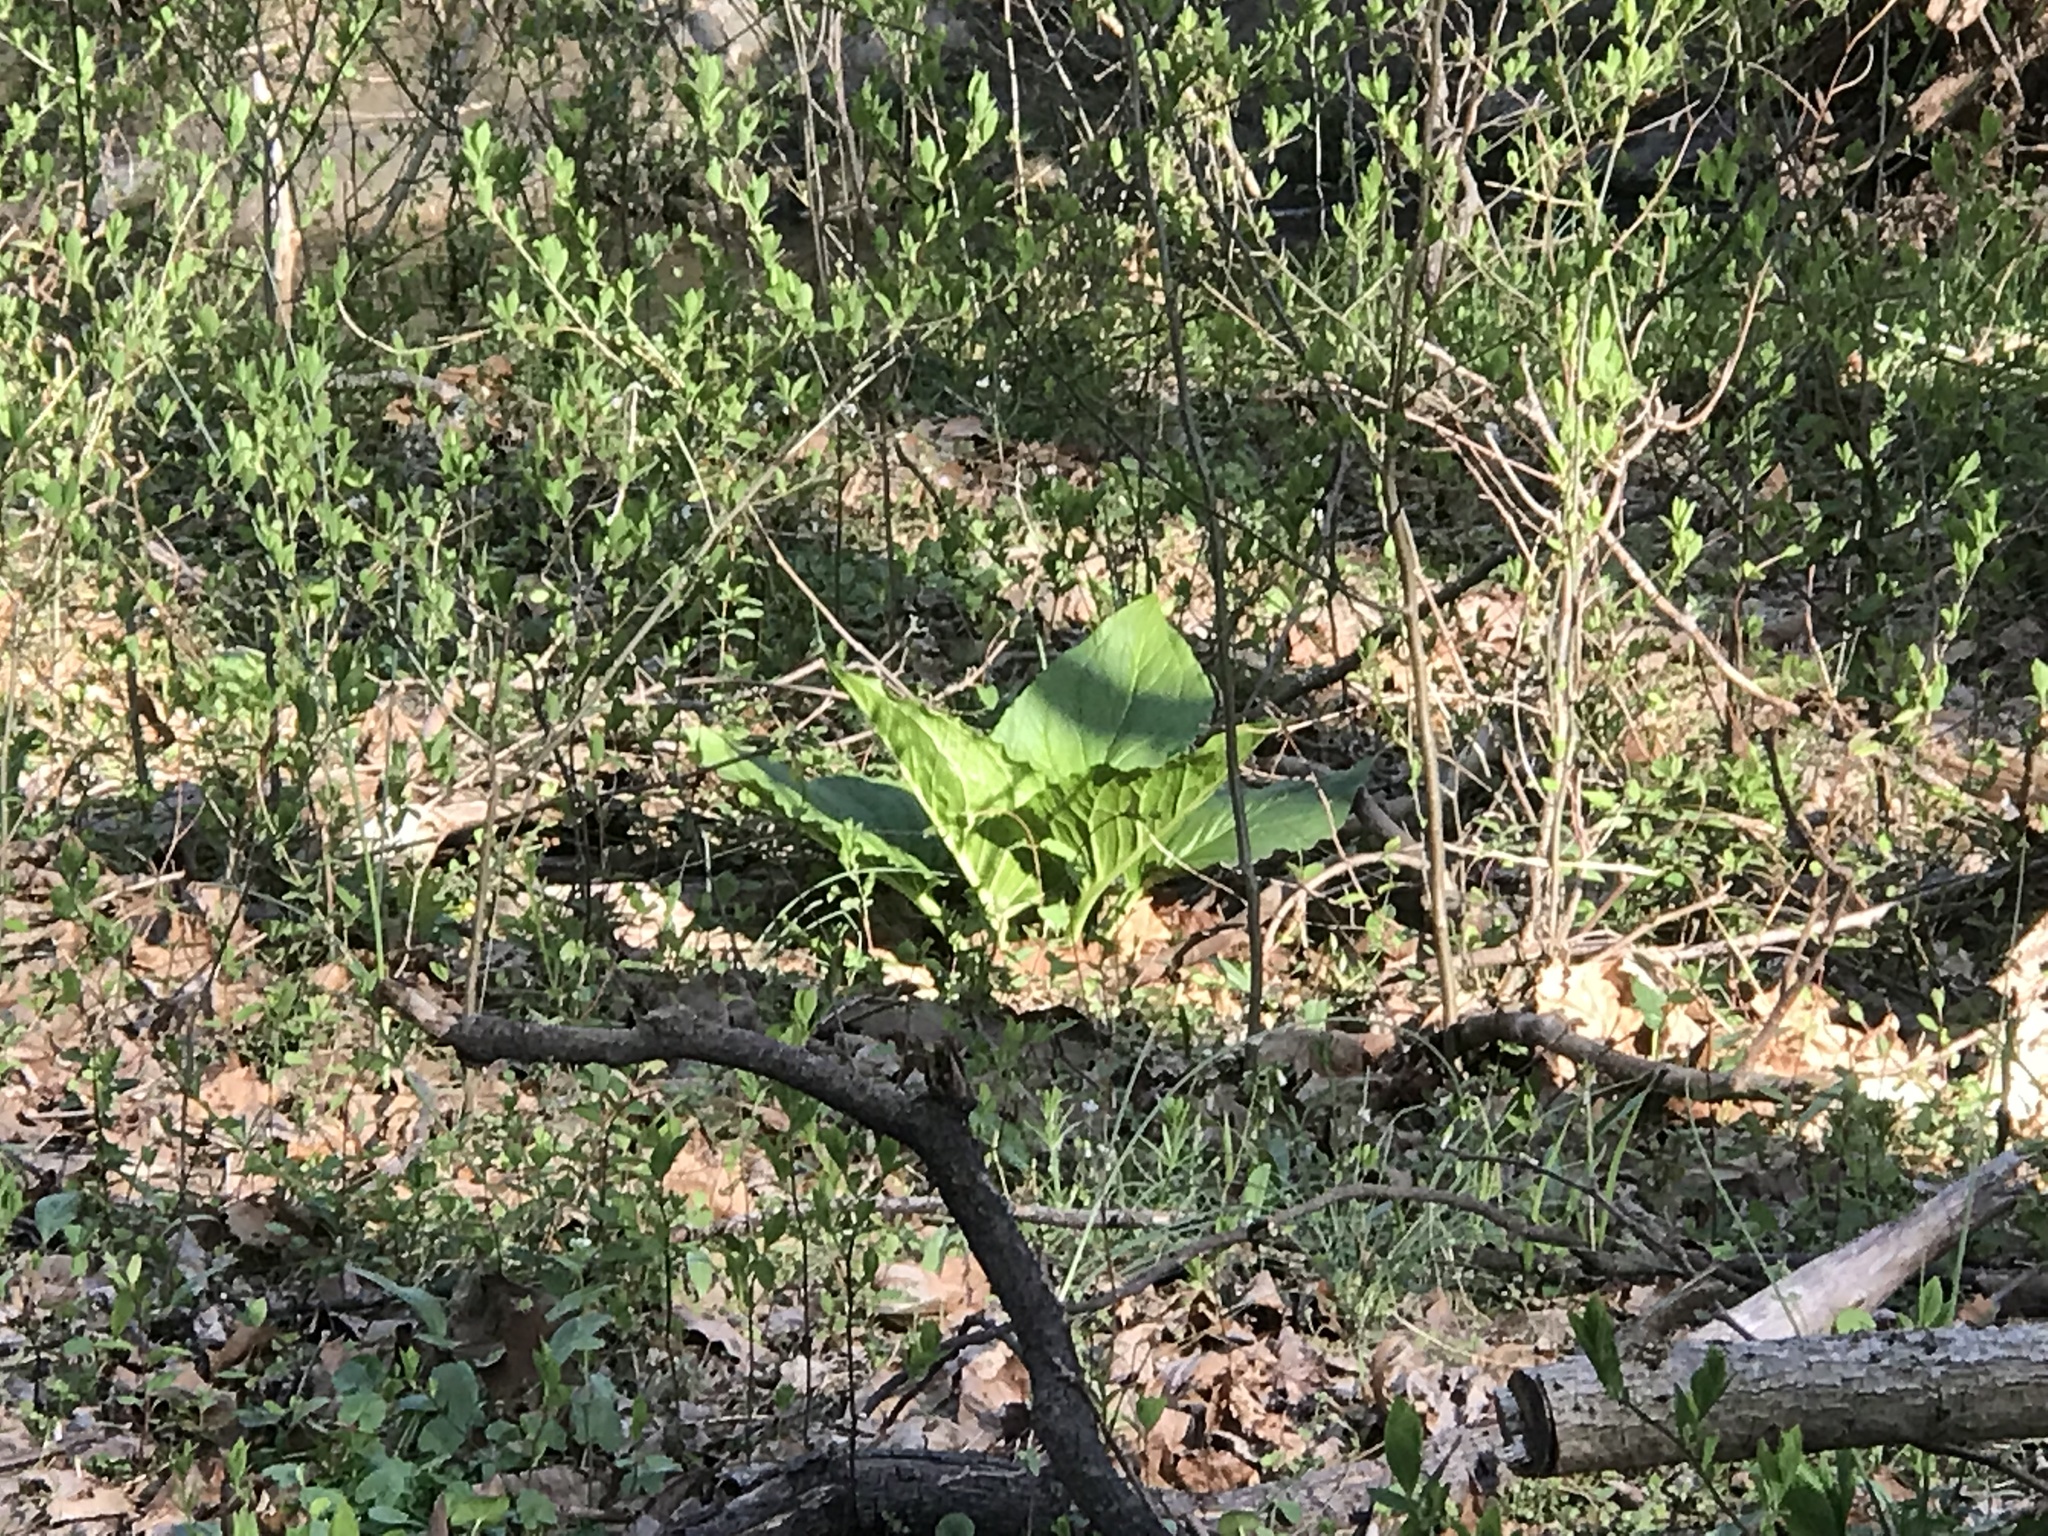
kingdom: Plantae
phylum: Tracheophyta
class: Liliopsida
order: Alismatales
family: Araceae
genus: Symplocarpus
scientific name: Symplocarpus foetidus
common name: Eastern skunk cabbage
